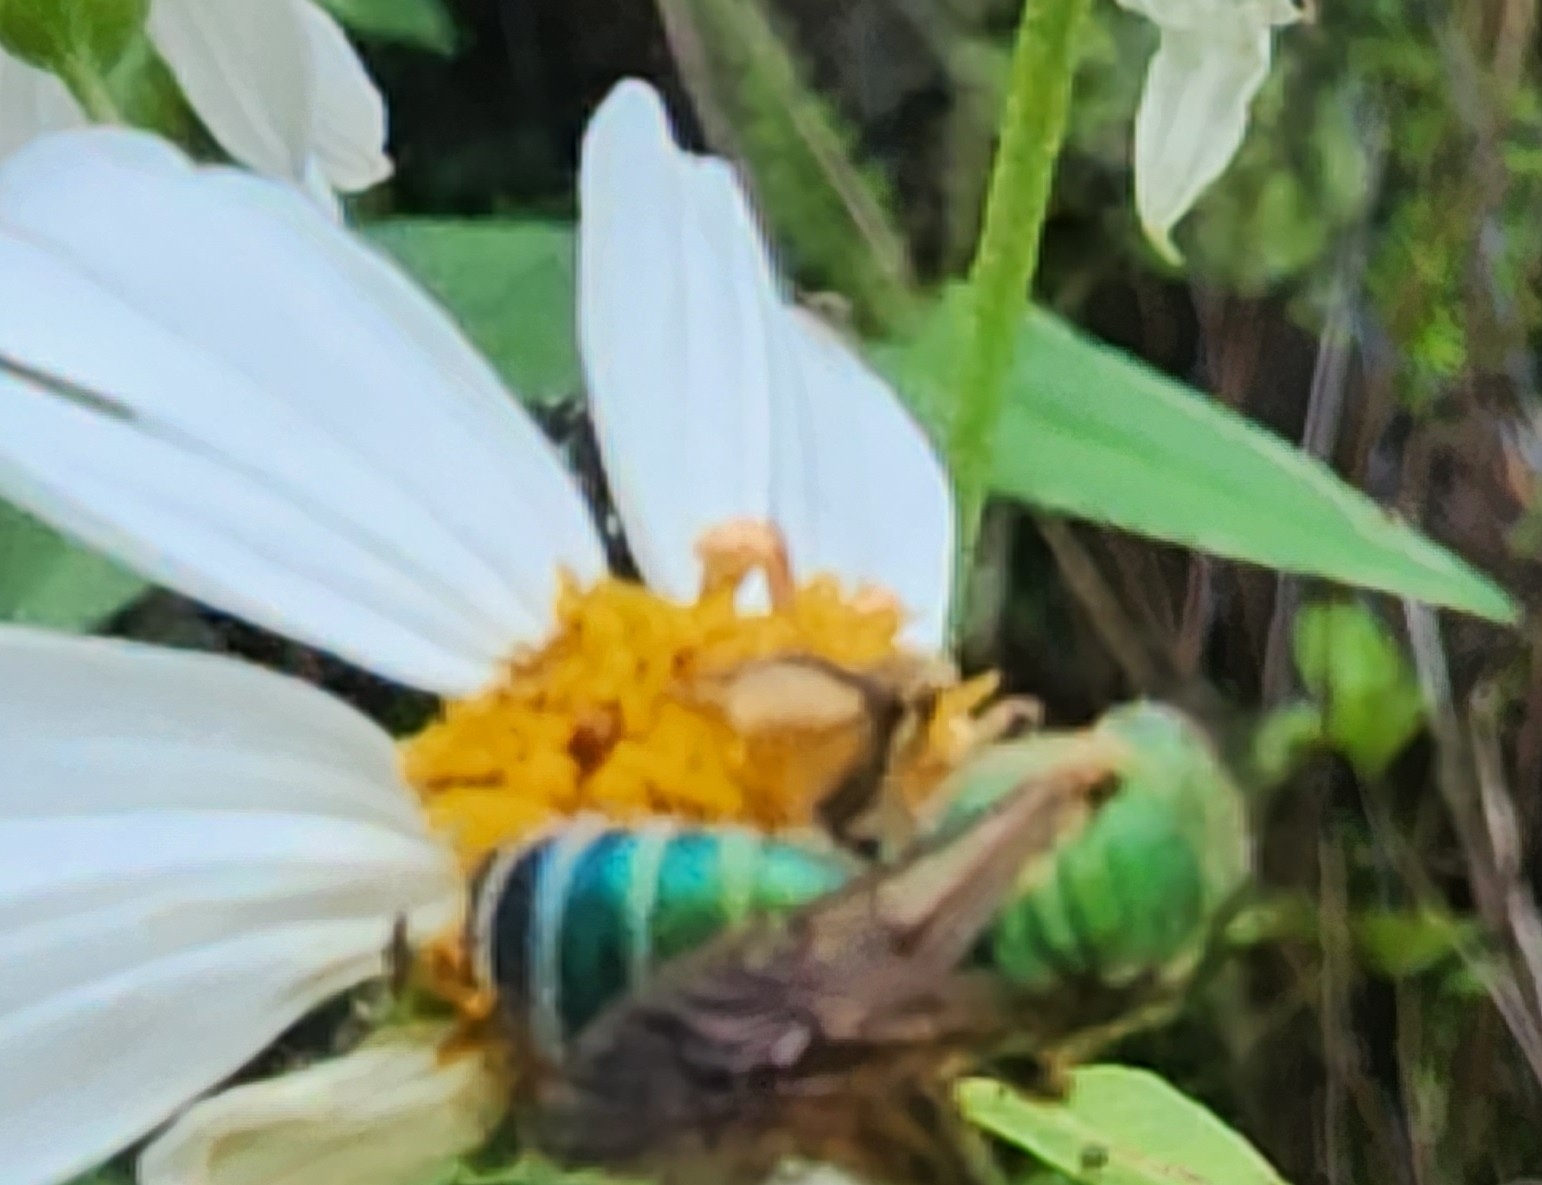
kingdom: Animalia
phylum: Arthropoda
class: Insecta
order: Hymenoptera
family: Halictidae
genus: Agapostemon
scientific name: Agapostemon splendens
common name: Brown-winged striped sweat bee
